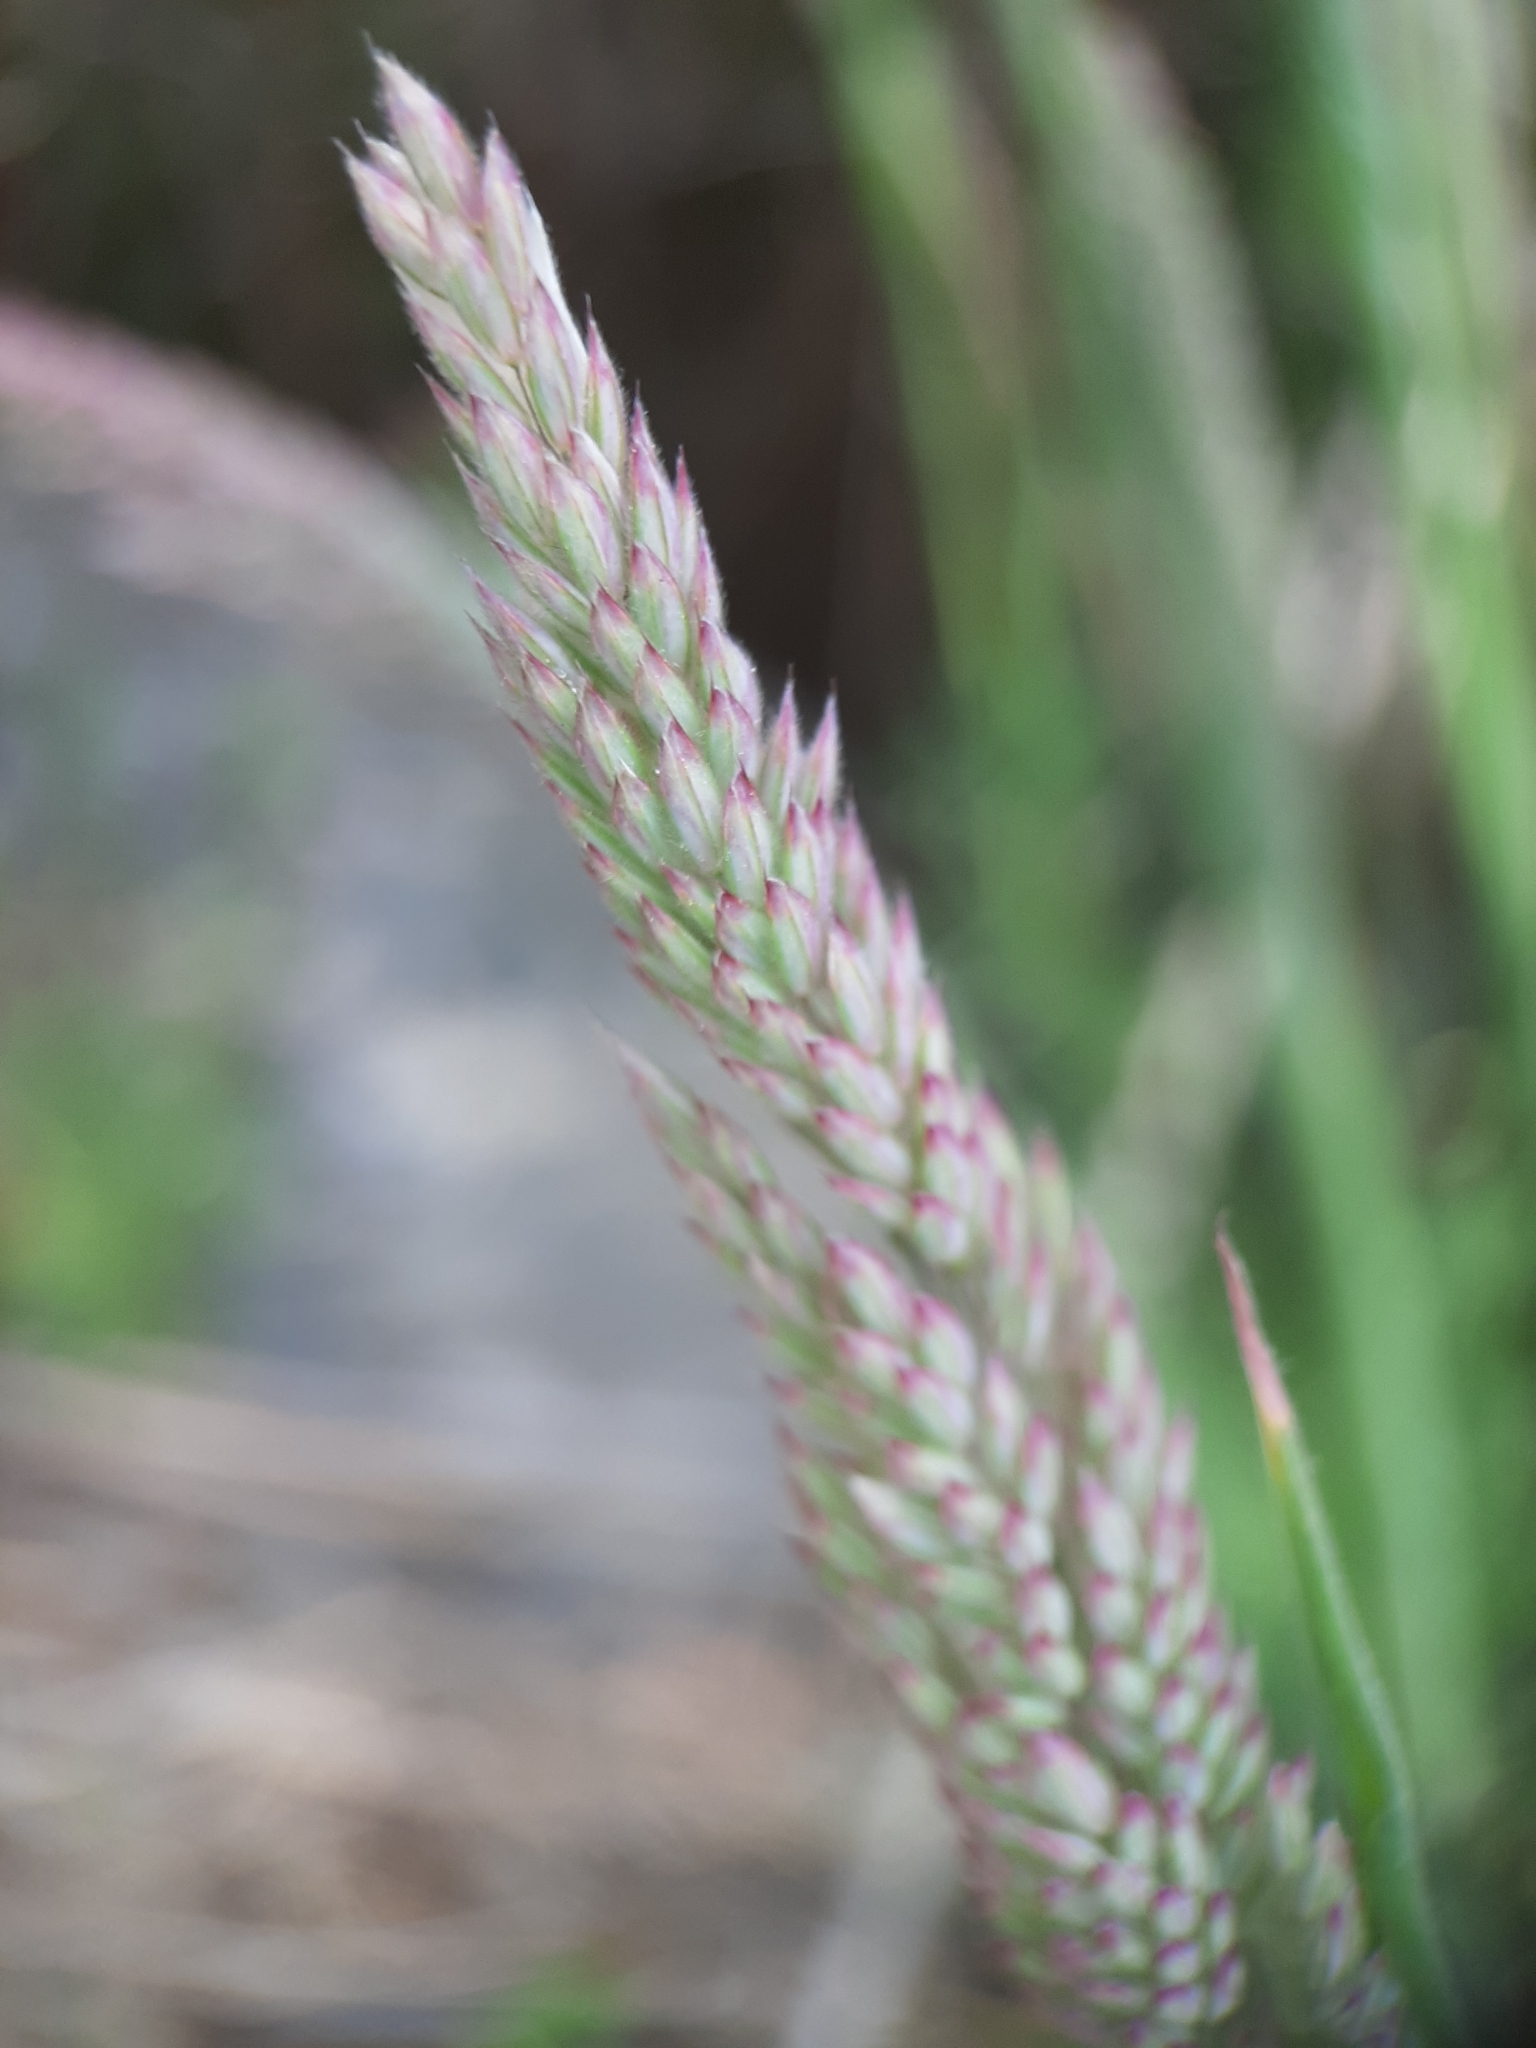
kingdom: Plantae
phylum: Tracheophyta
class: Liliopsida
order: Poales
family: Poaceae
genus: Holcus
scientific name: Holcus lanatus
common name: Yorkshire-fog
